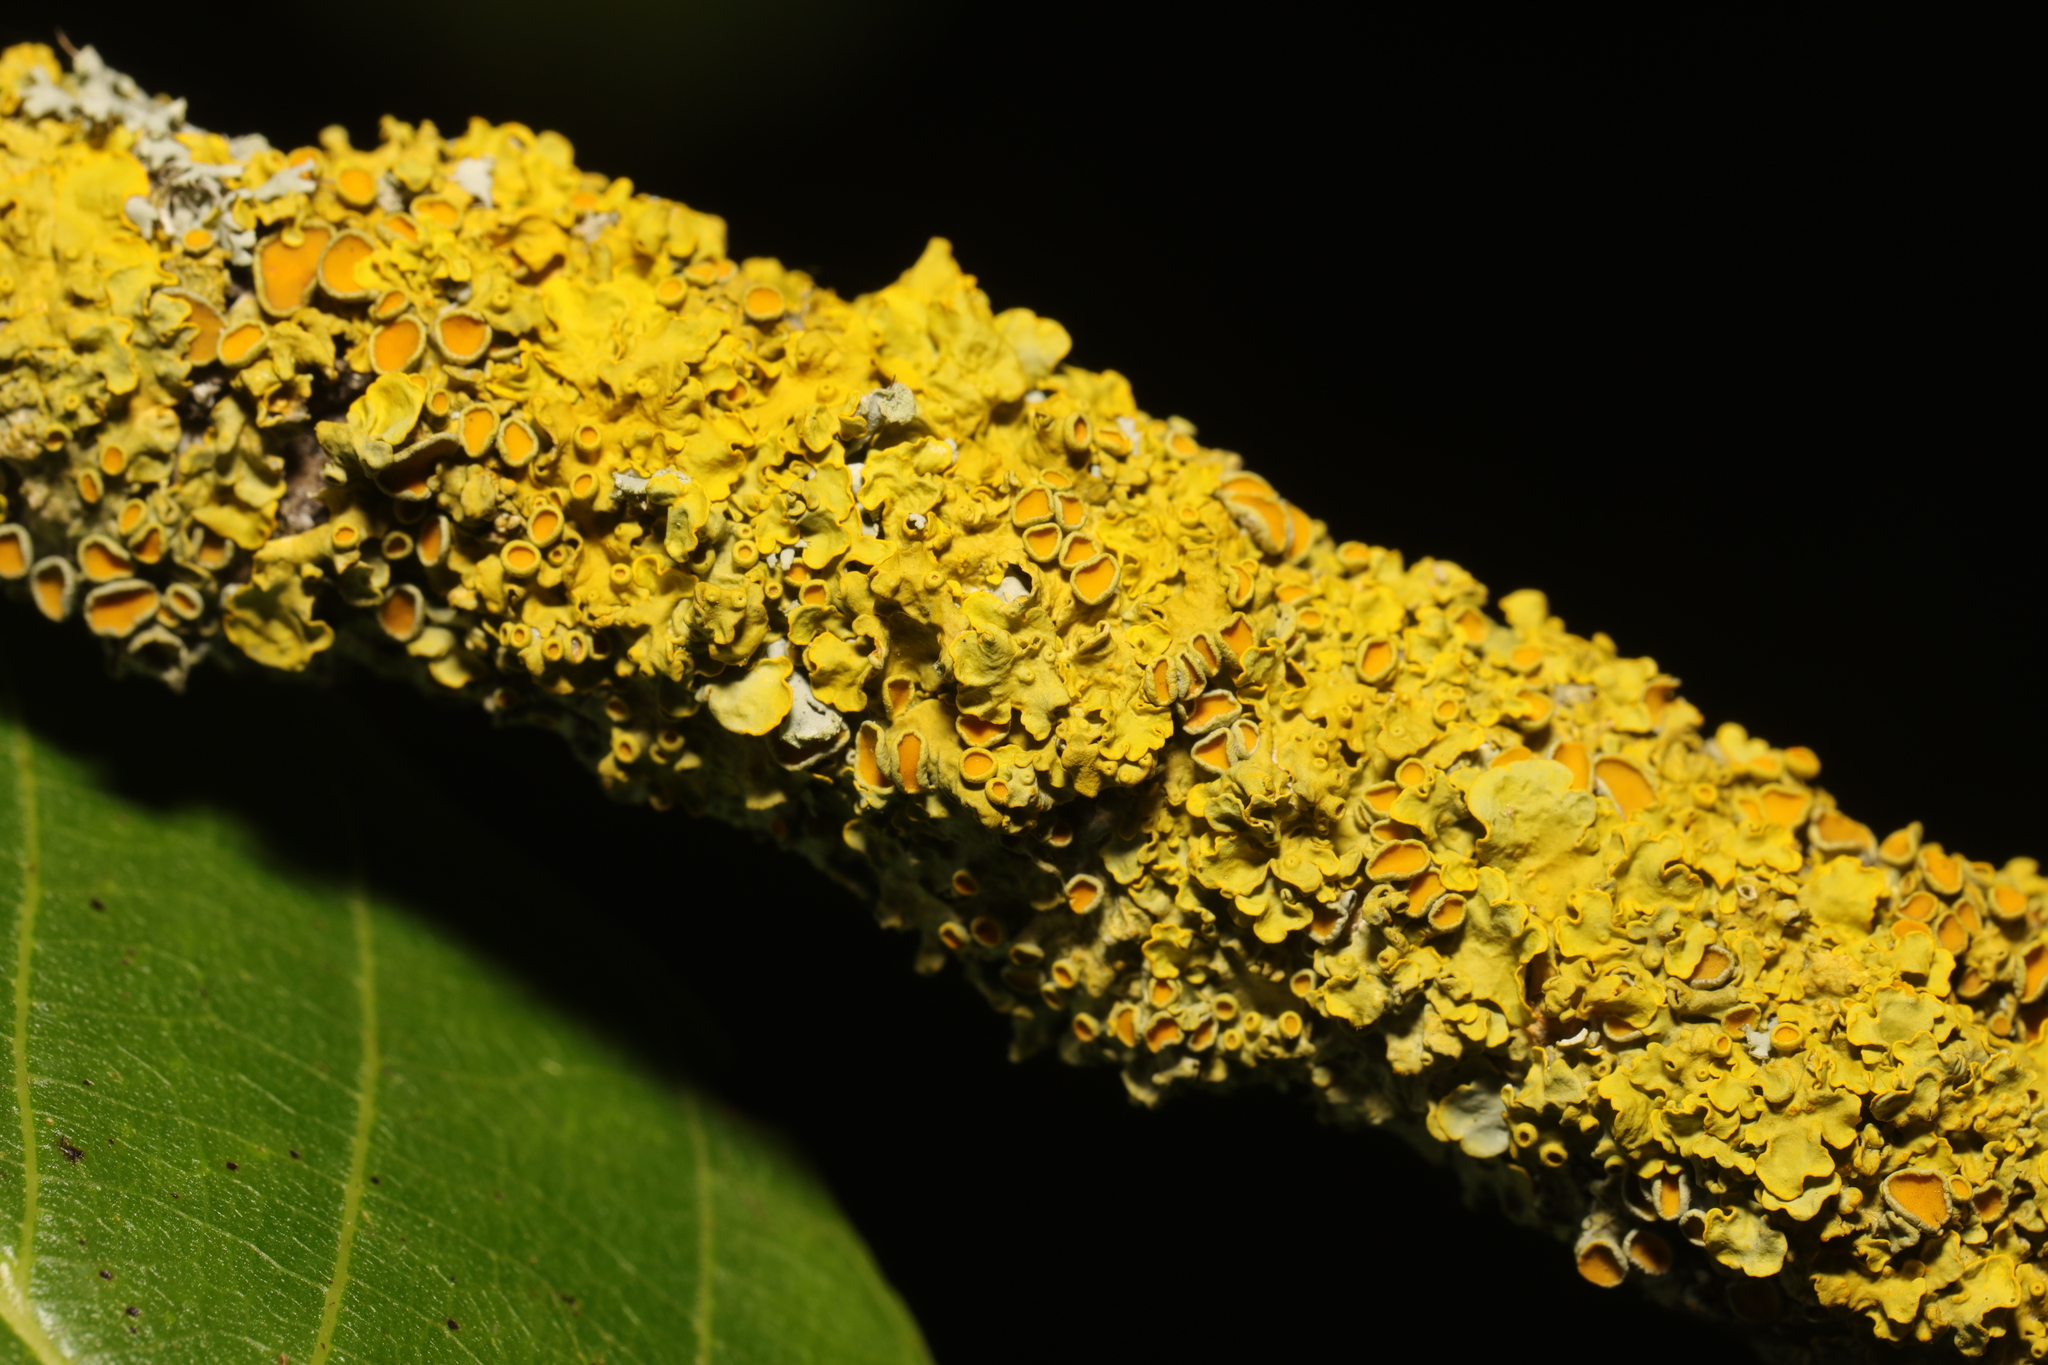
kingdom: Fungi
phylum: Ascomycota
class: Lecanoromycetes
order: Teloschistales
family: Teloschistaceae
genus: Xanthoria
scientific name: Xanthoria parietina
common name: Common orange lichen
